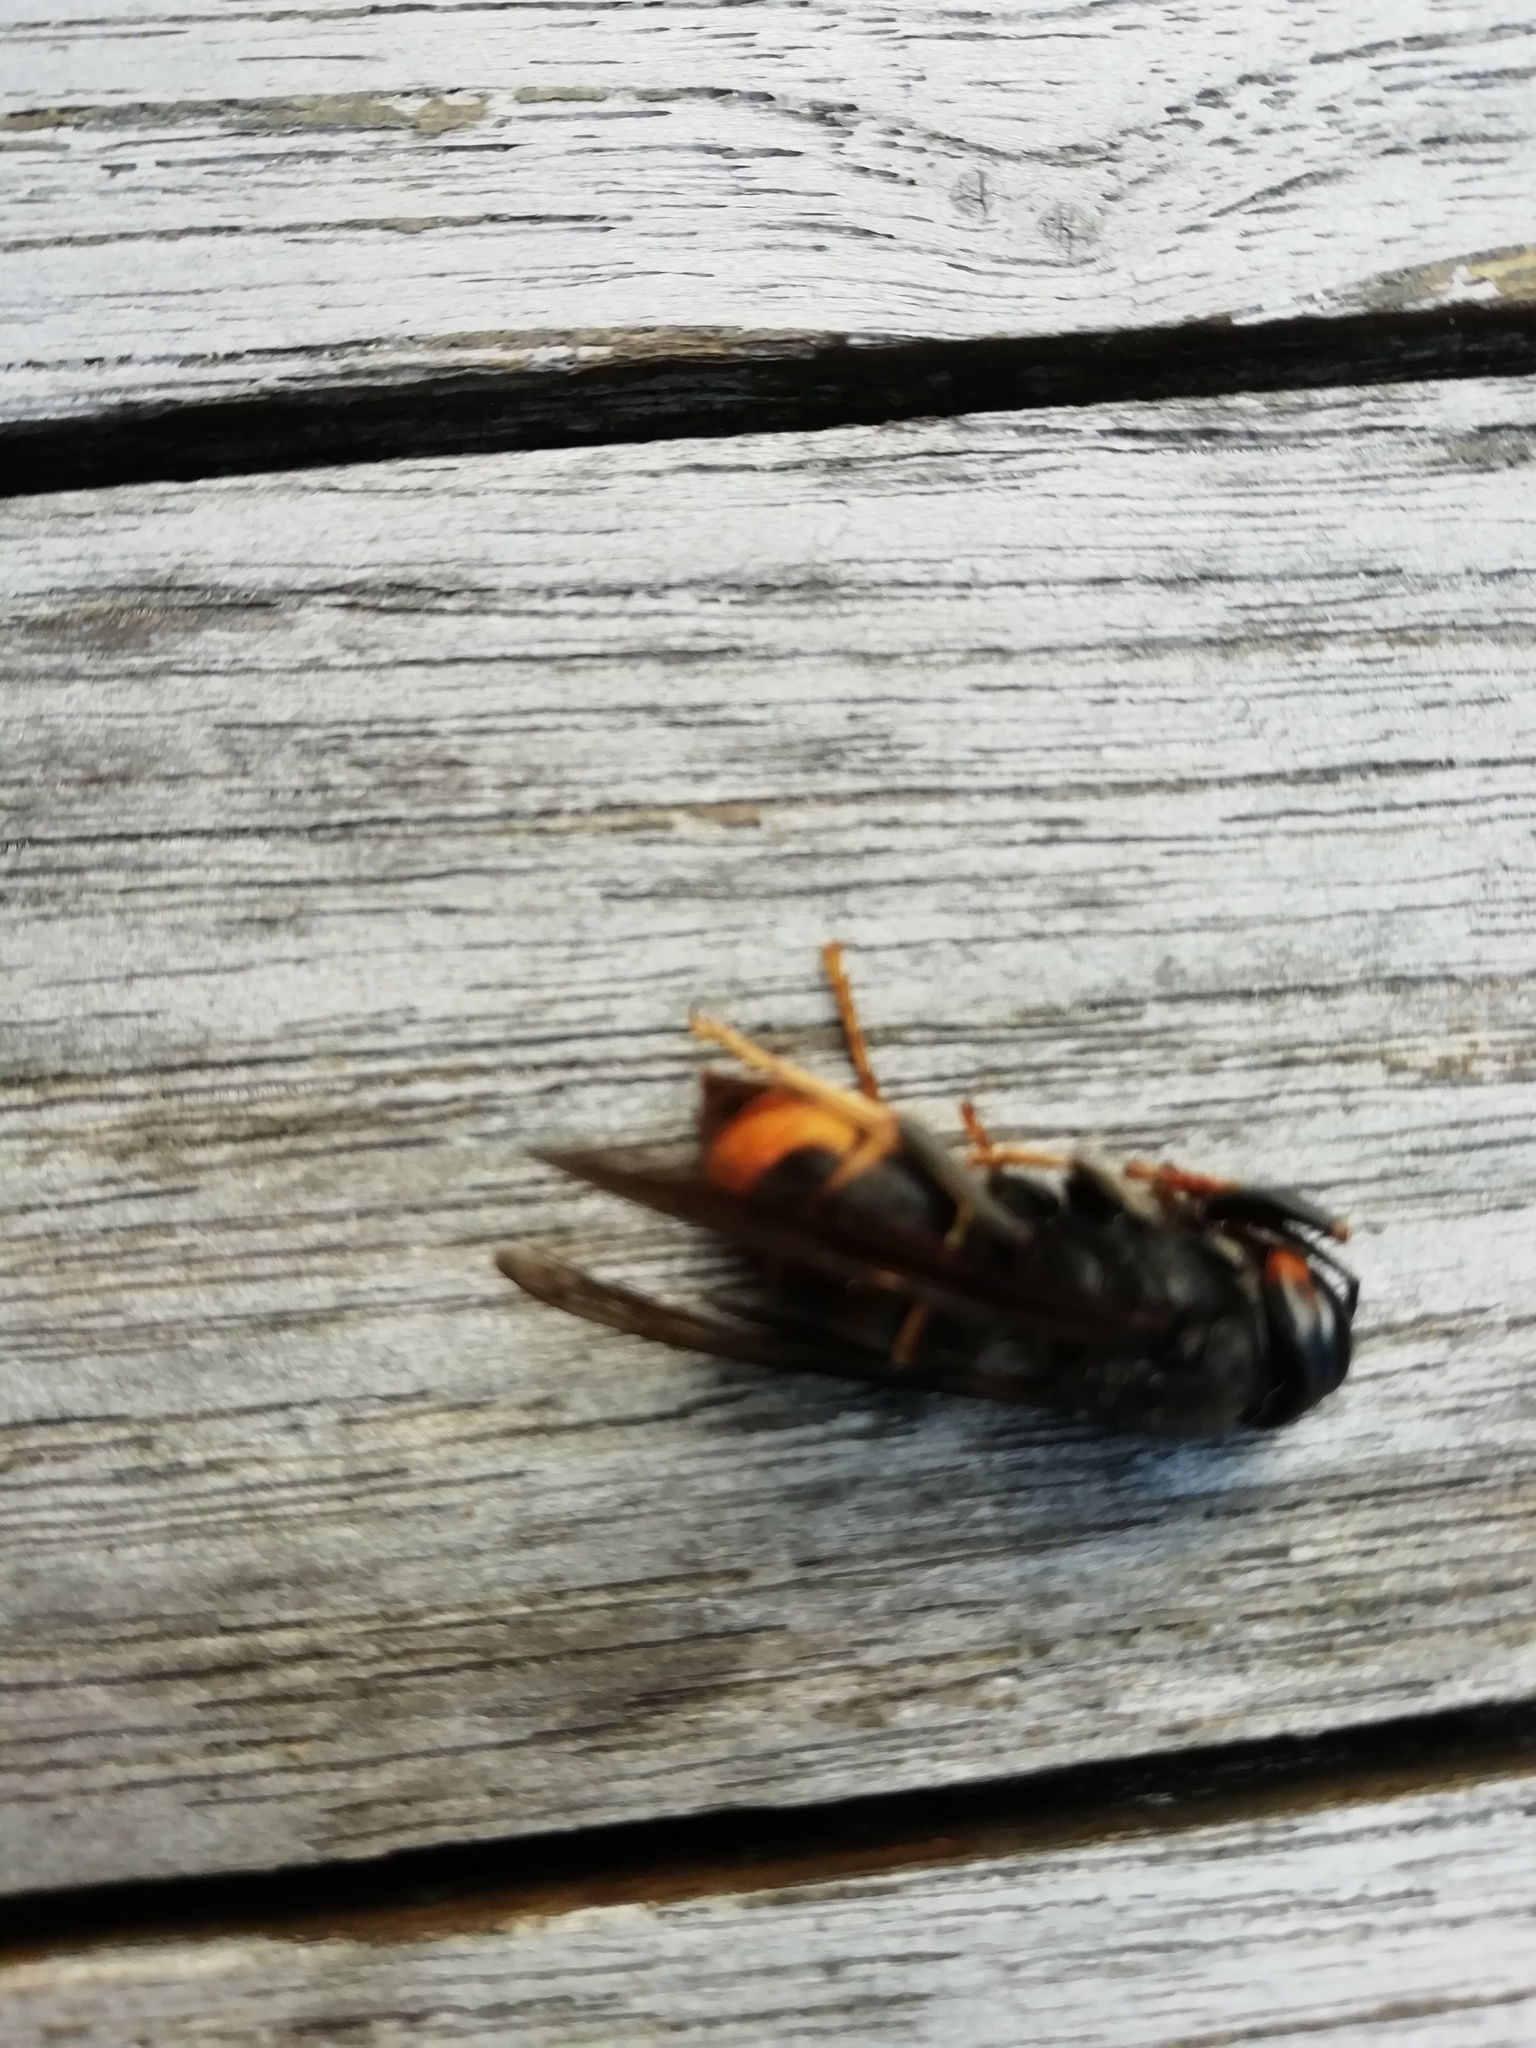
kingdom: Animalia
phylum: Arthropoda
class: Insecta
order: Hymenoptera
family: Vespidae
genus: Vespa
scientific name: Vespa velutina
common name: Asian hornet
